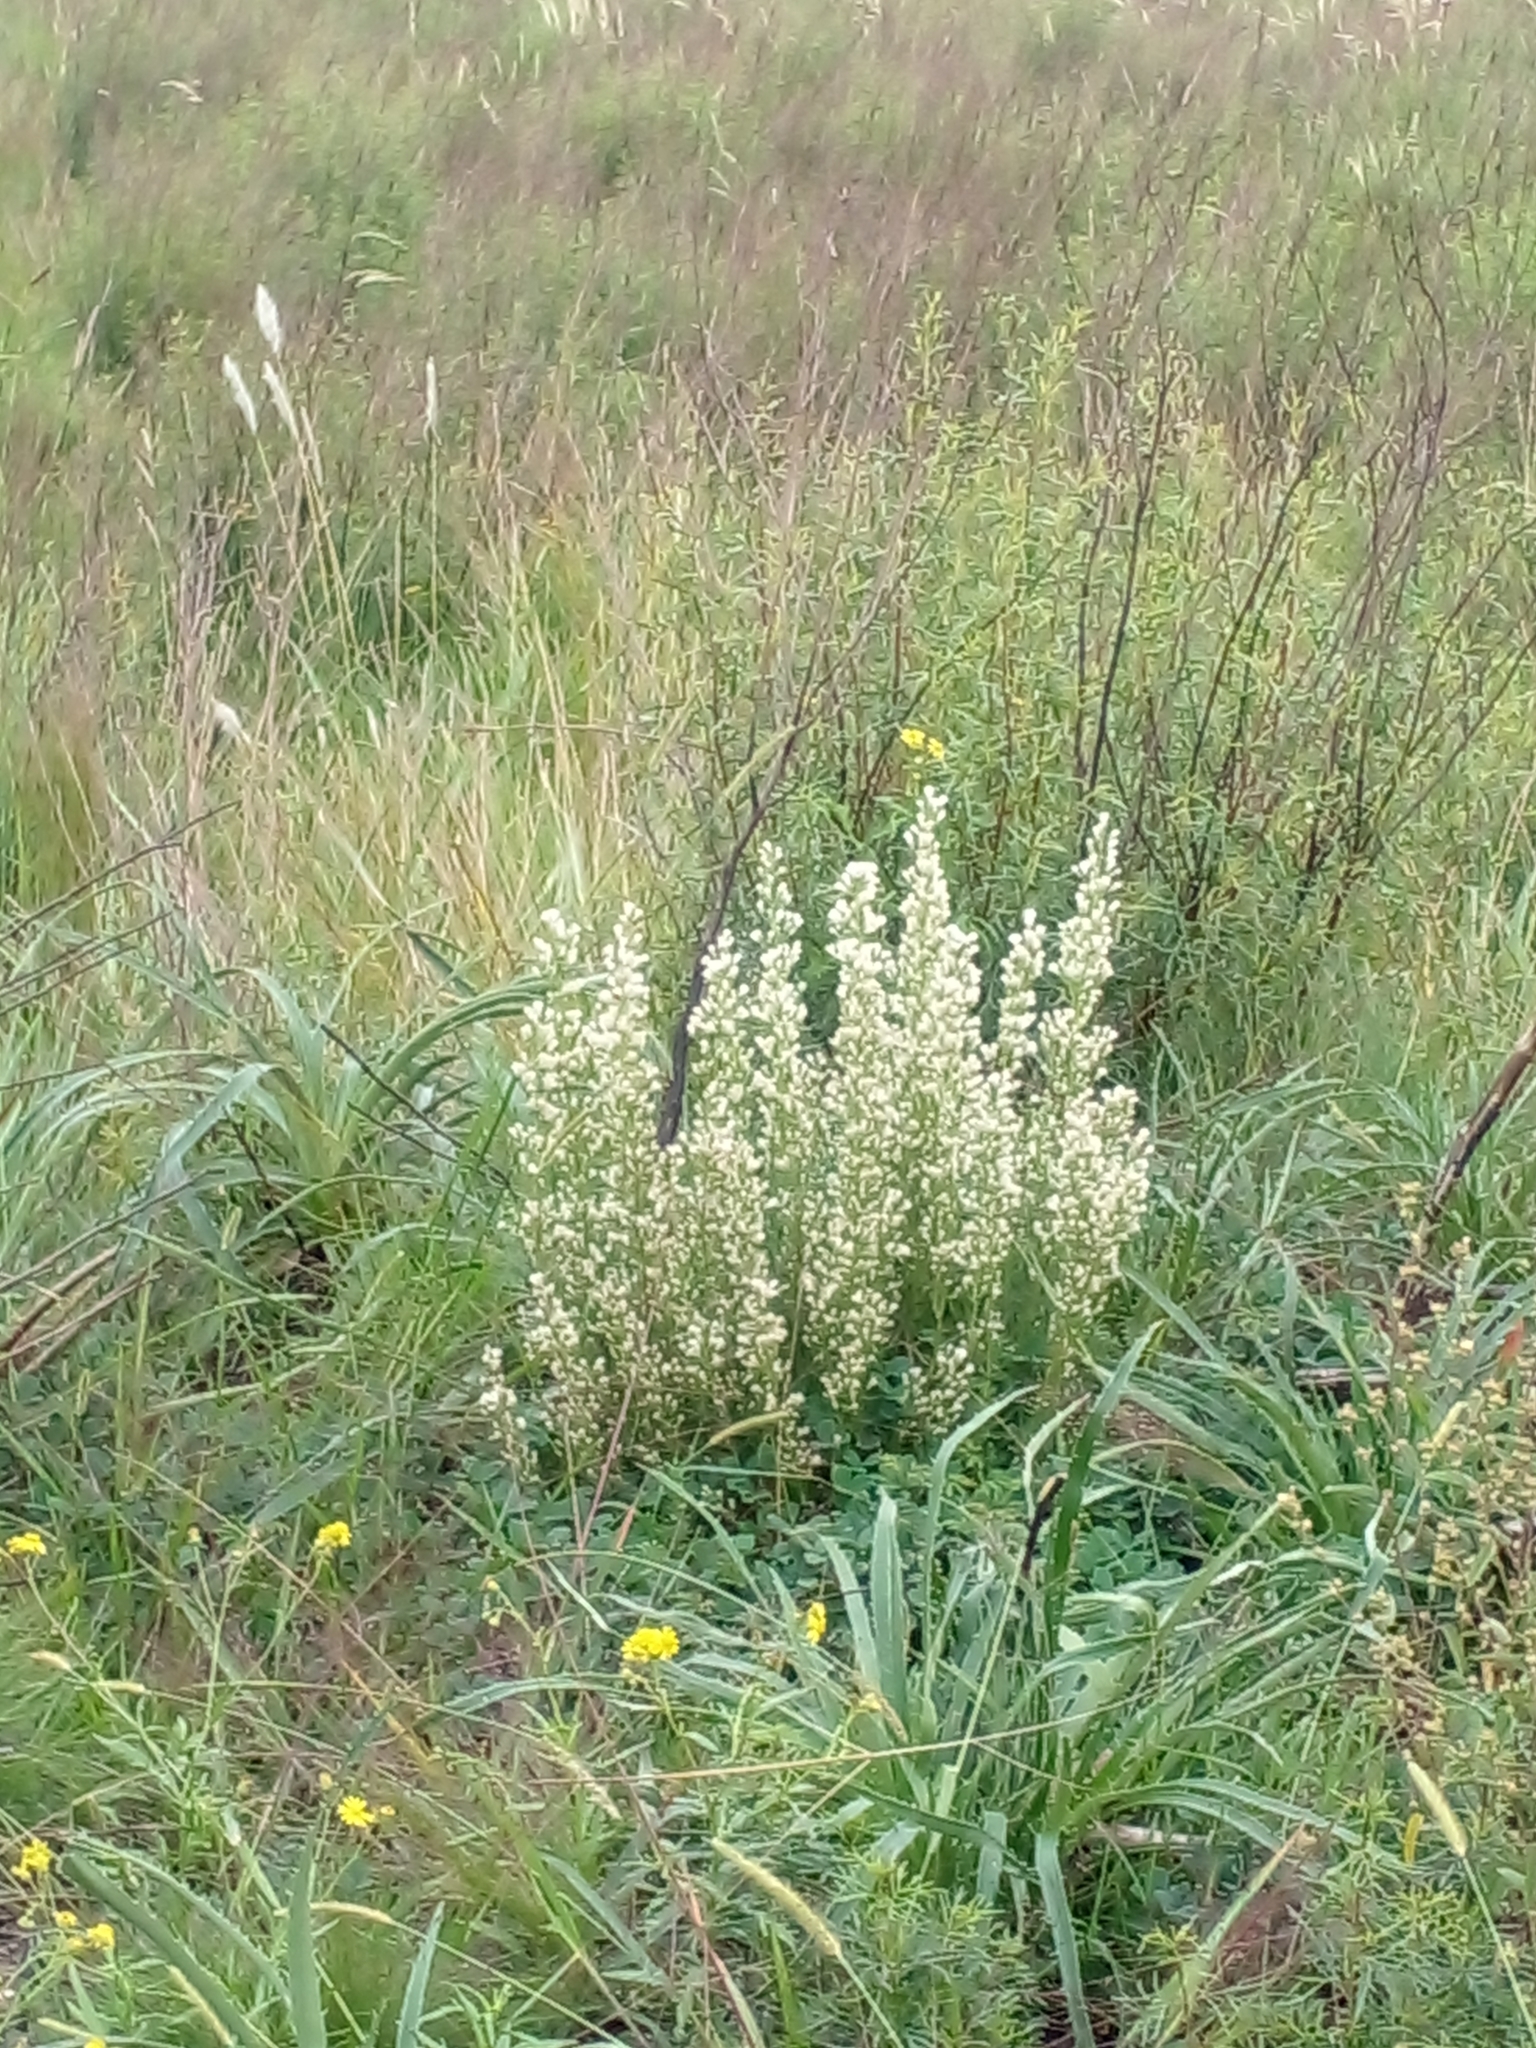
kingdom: Plantae
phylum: Tracheophyta
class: Magnoliopsida
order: Asterales
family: Asteraceae
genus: Baccharis
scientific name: Baccharis coridifolia
